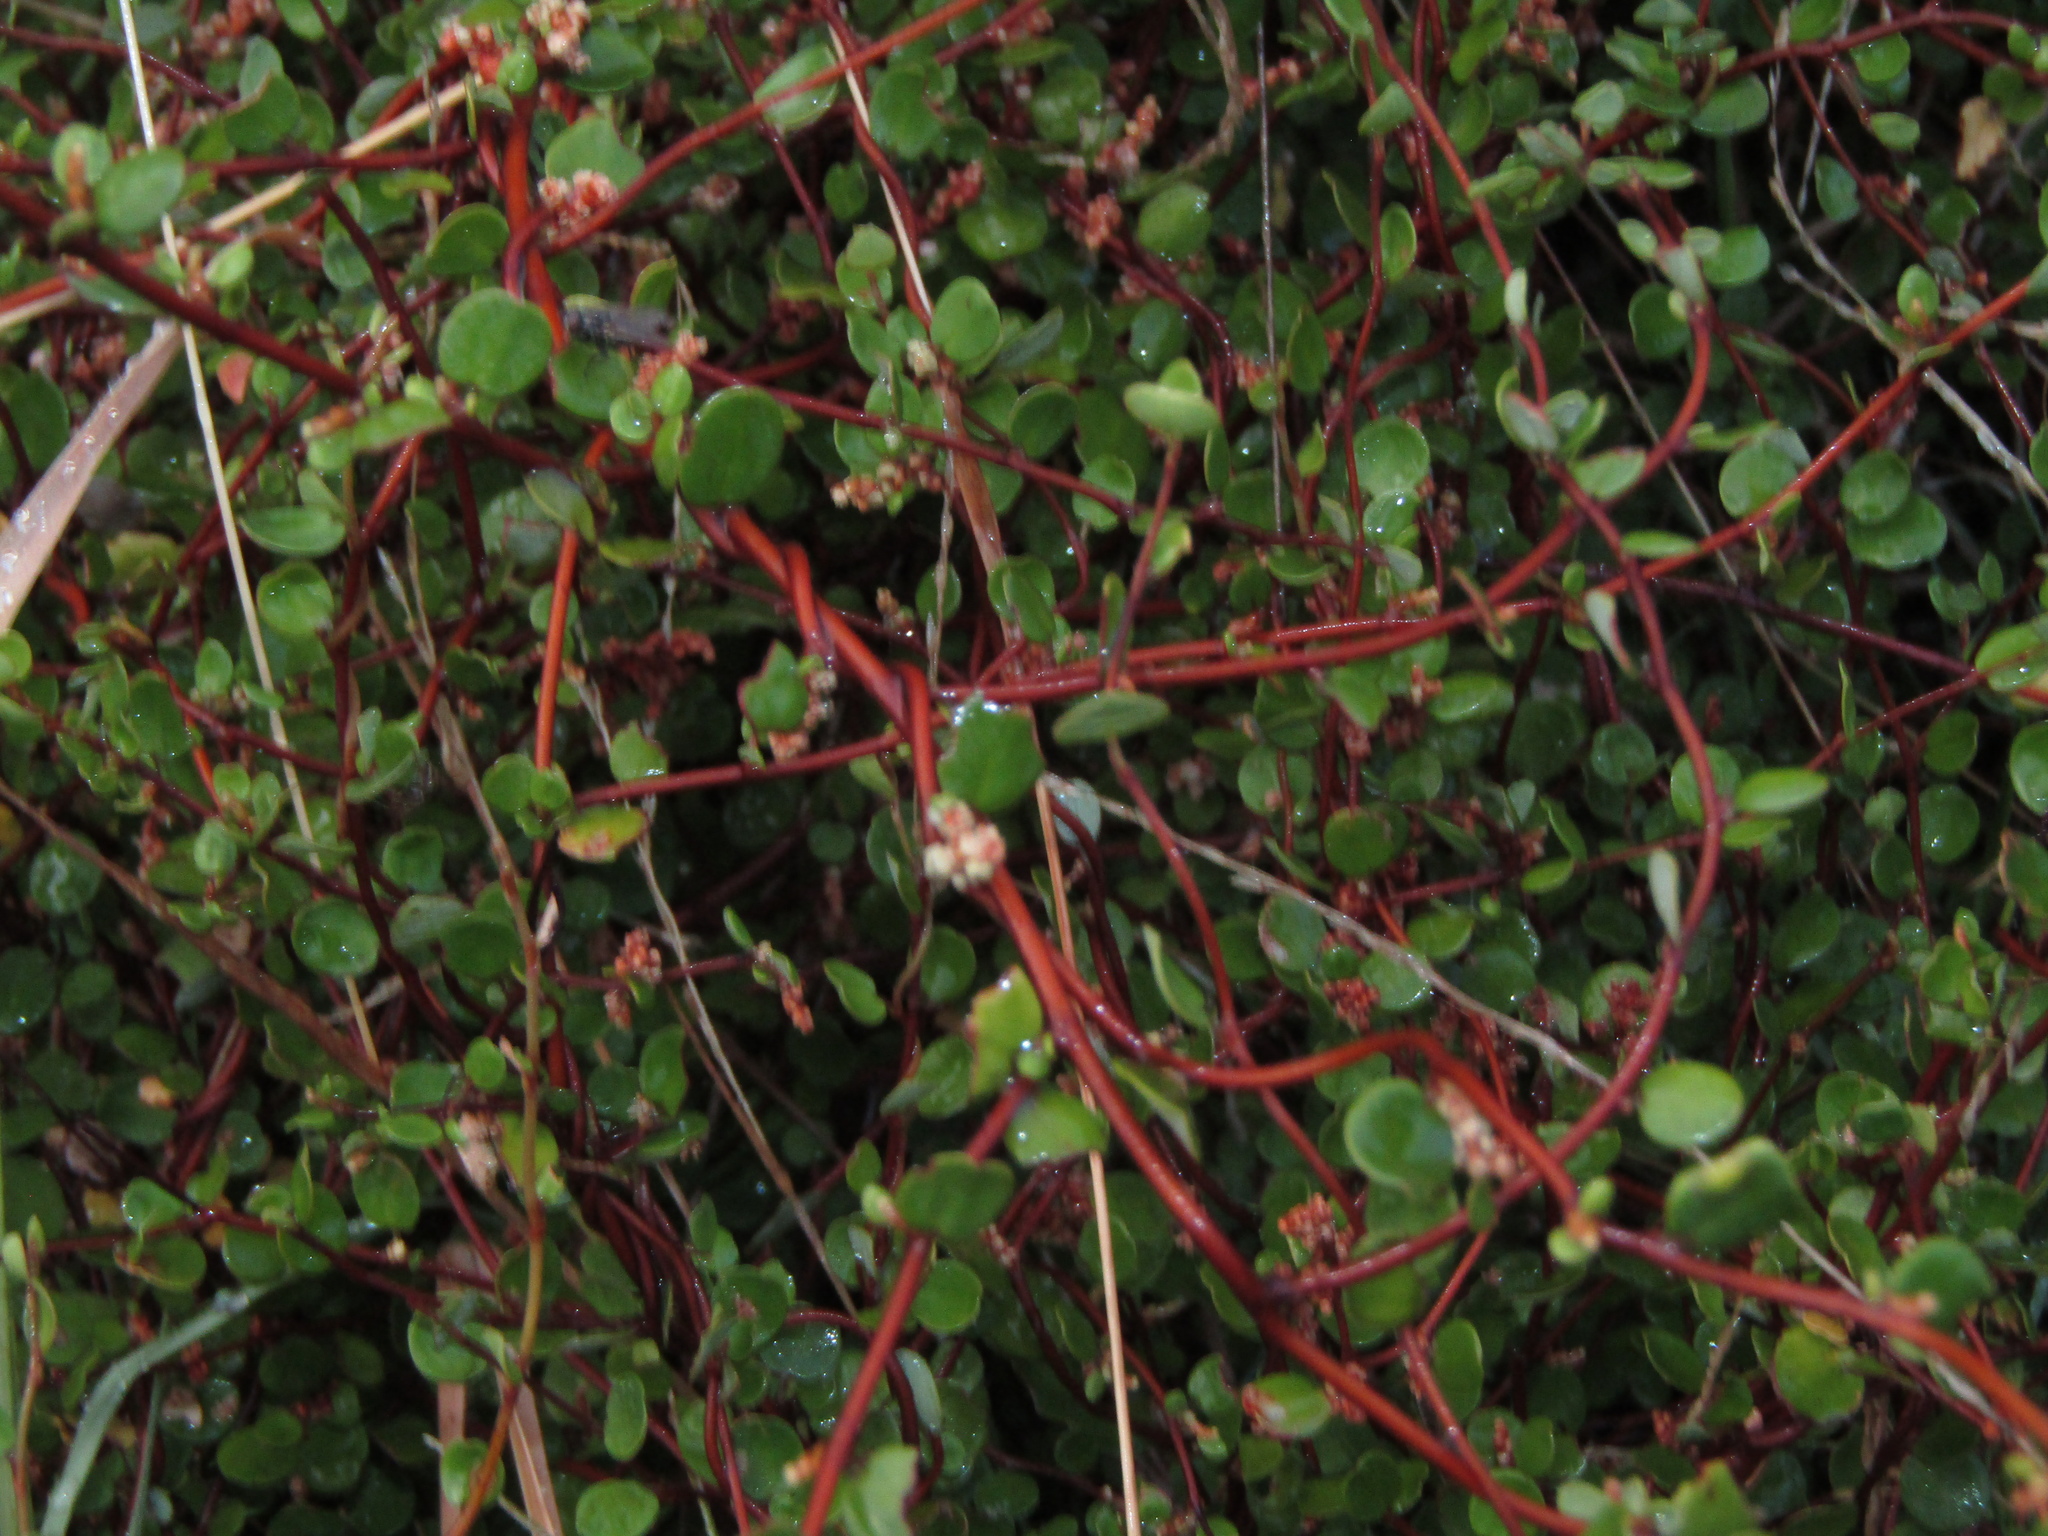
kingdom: Plantae
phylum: Tracheophyta
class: Magnoliopsida
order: Caryophyllales
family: Polygonaceae
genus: Muehlenbeckia
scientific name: Muehlenbeckia complexa
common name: Wireplant
